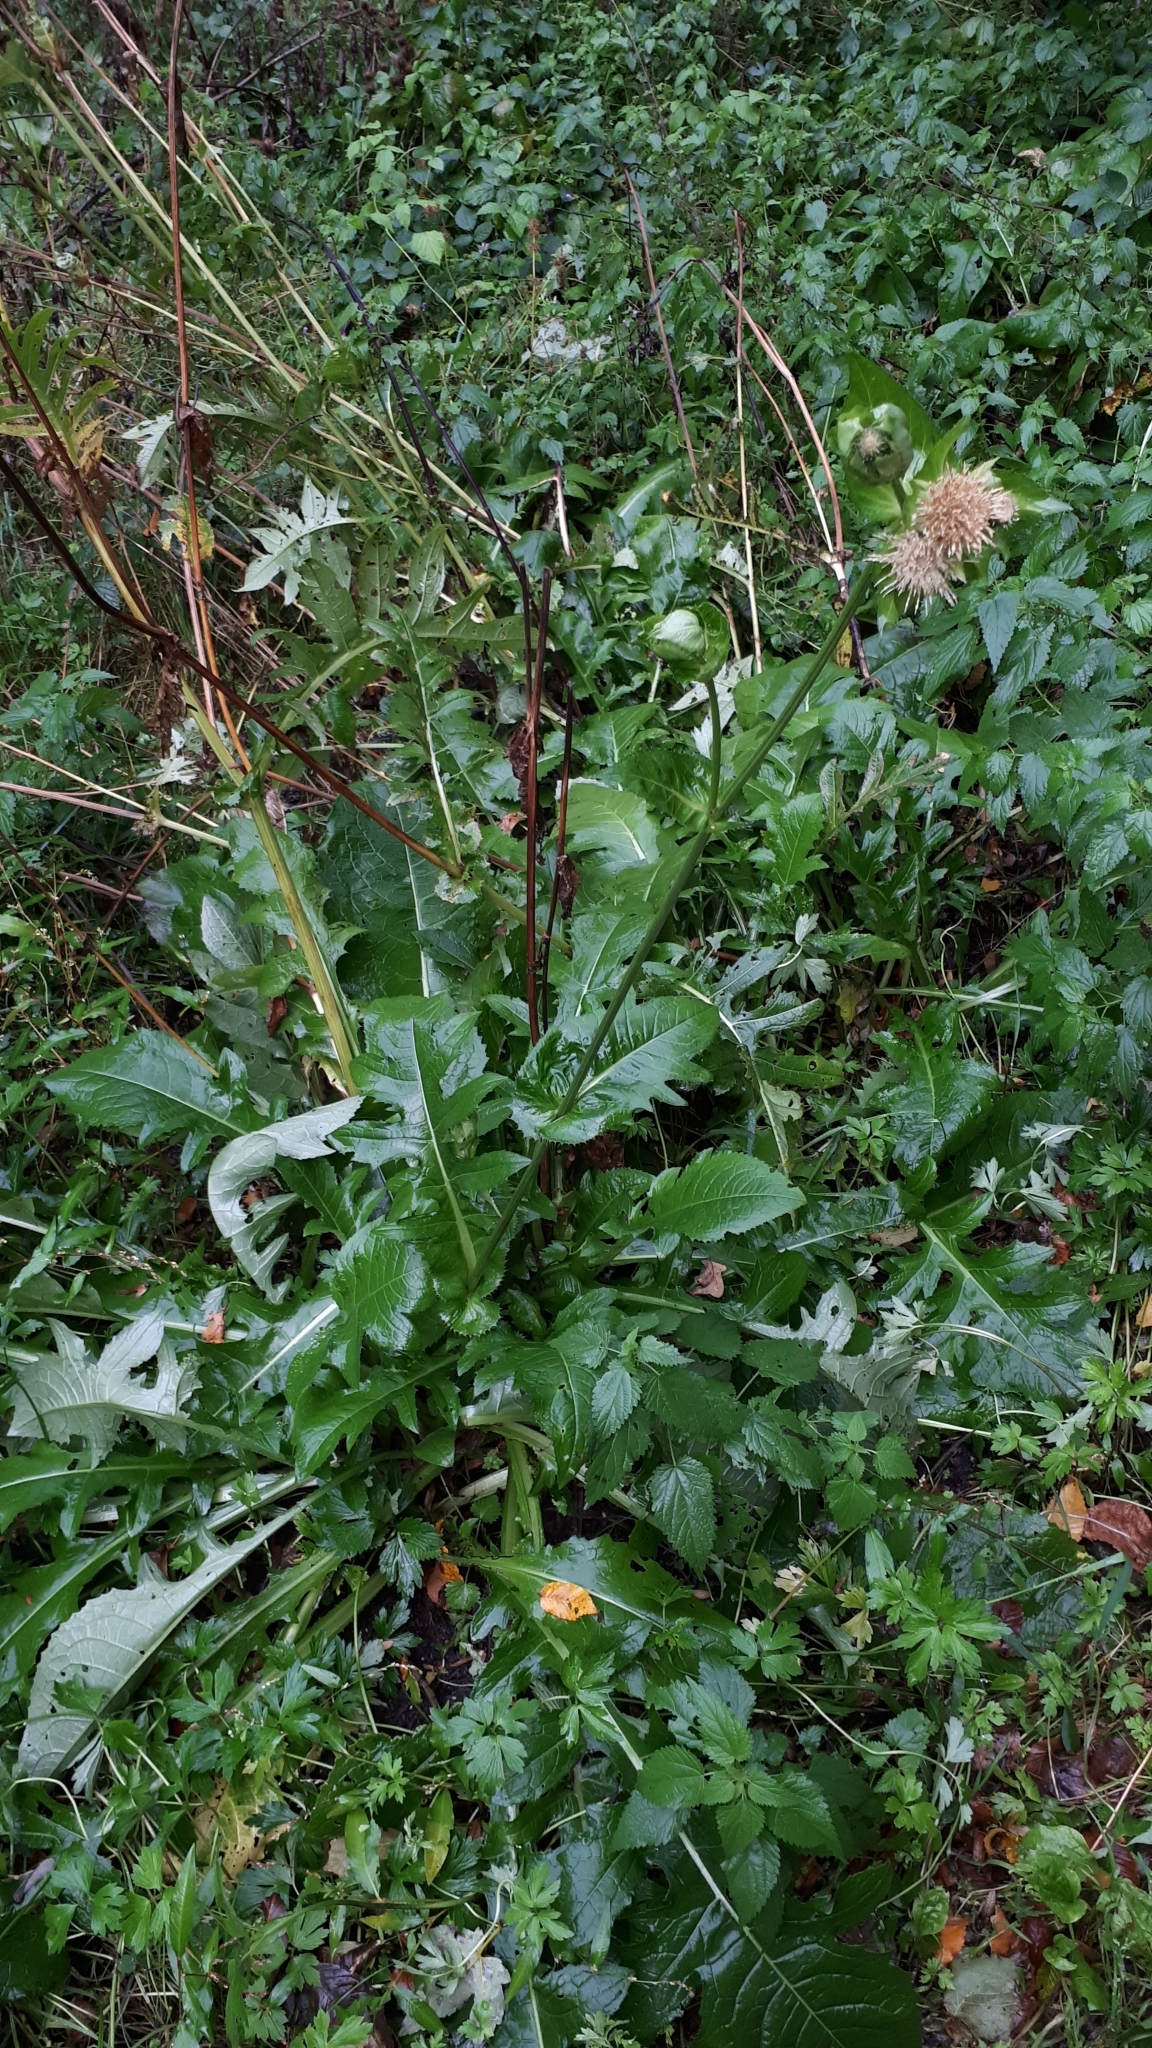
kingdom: Plantae
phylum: Tracheophyta
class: Magnoliopsida
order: Asterales
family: Asteraceae
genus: Cirsium
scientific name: Cirsium oleraceum
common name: Cabbage thistle
